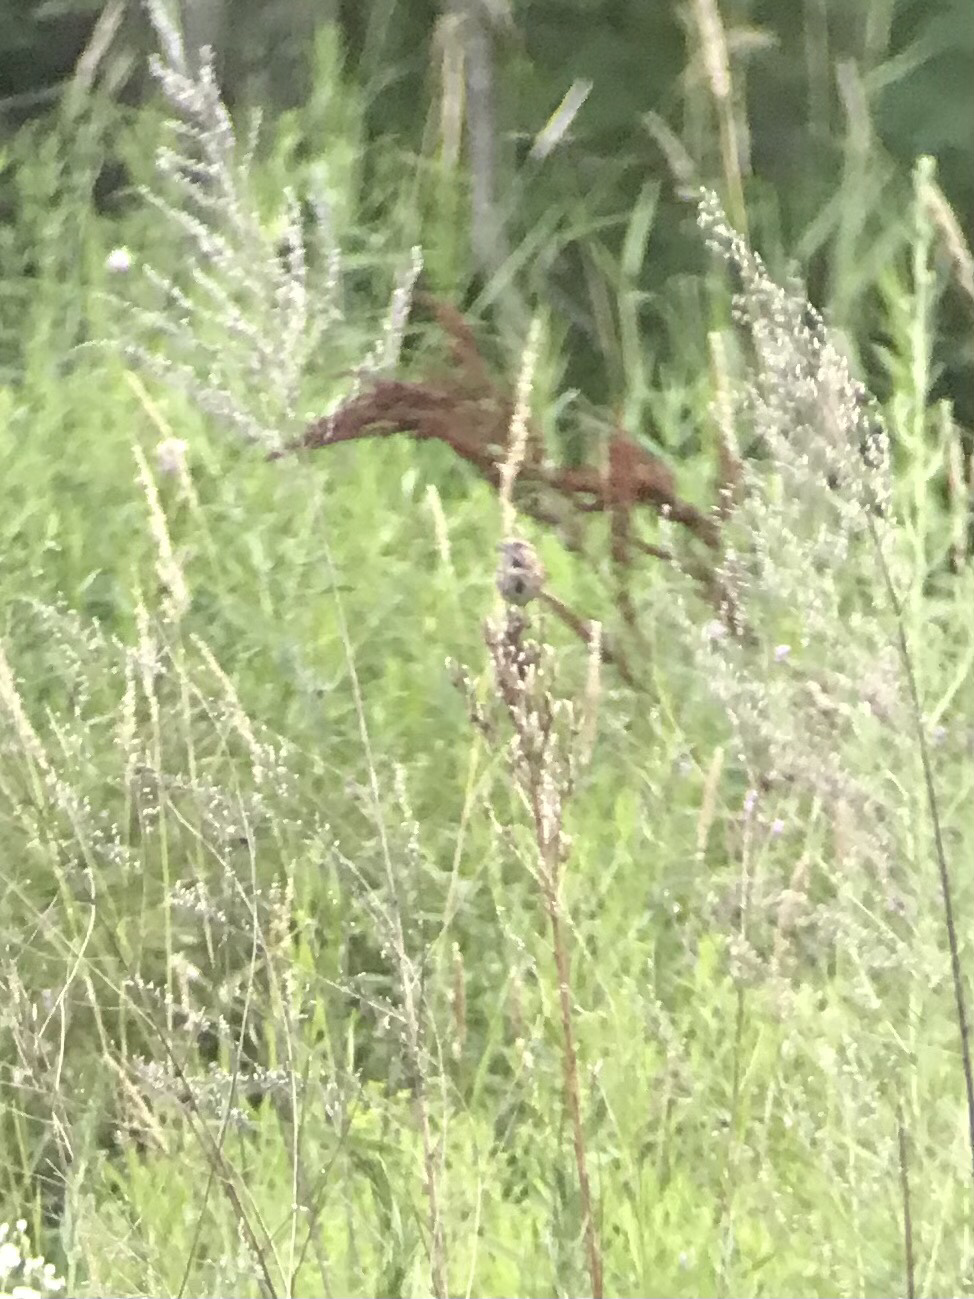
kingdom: Animalia
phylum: Chordata
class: Aves
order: Passeriformes
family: Passerellidae
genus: Melospiza
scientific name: Melospiza melodia
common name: Song sparrow
